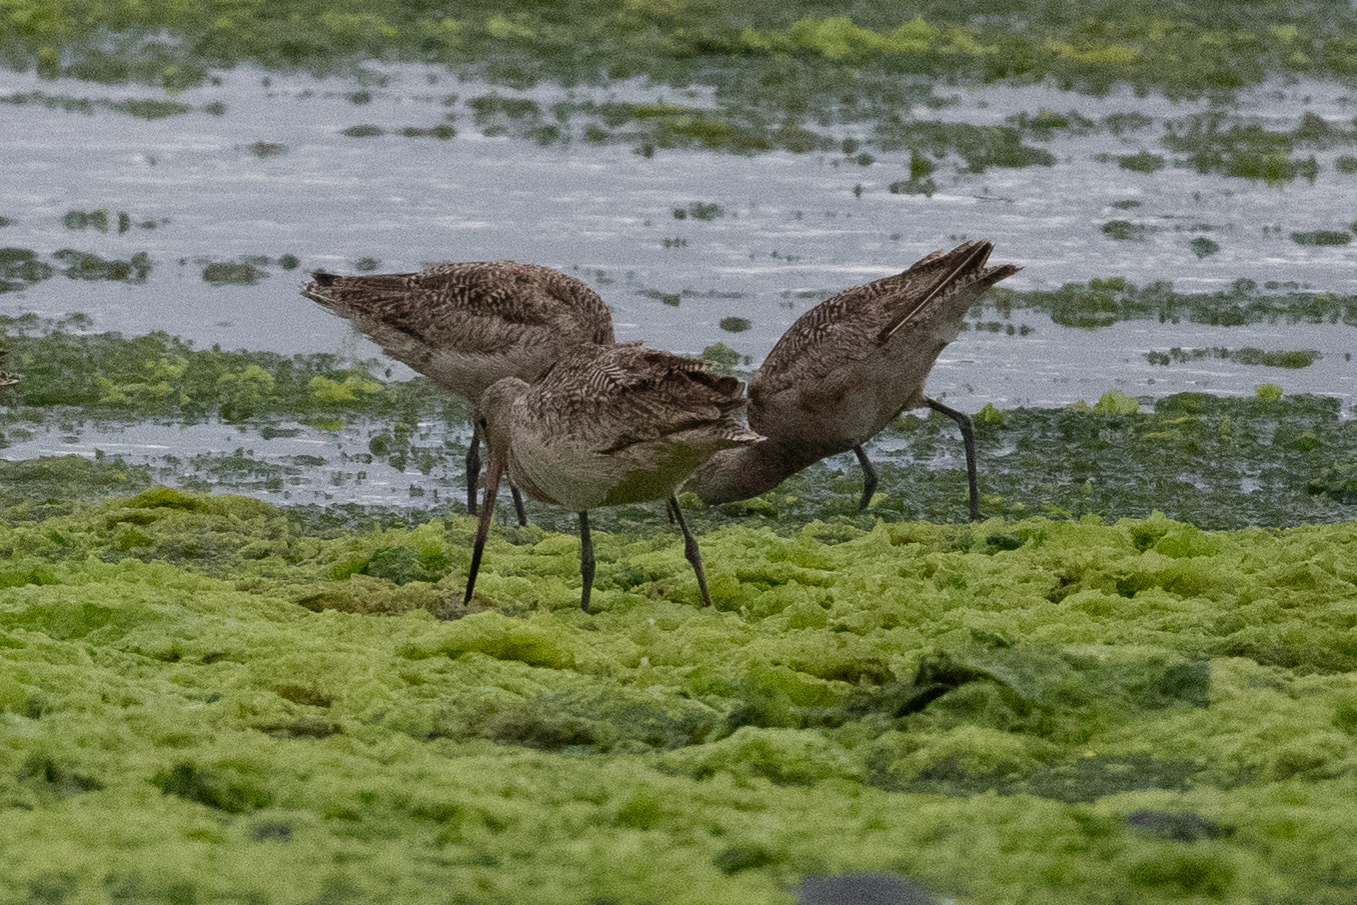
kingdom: Animalia
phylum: Chordata
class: Aves
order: Charadriiformes
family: Scolopacidae
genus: Limosa
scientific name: Limosa fedoa
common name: Marbled godwit
